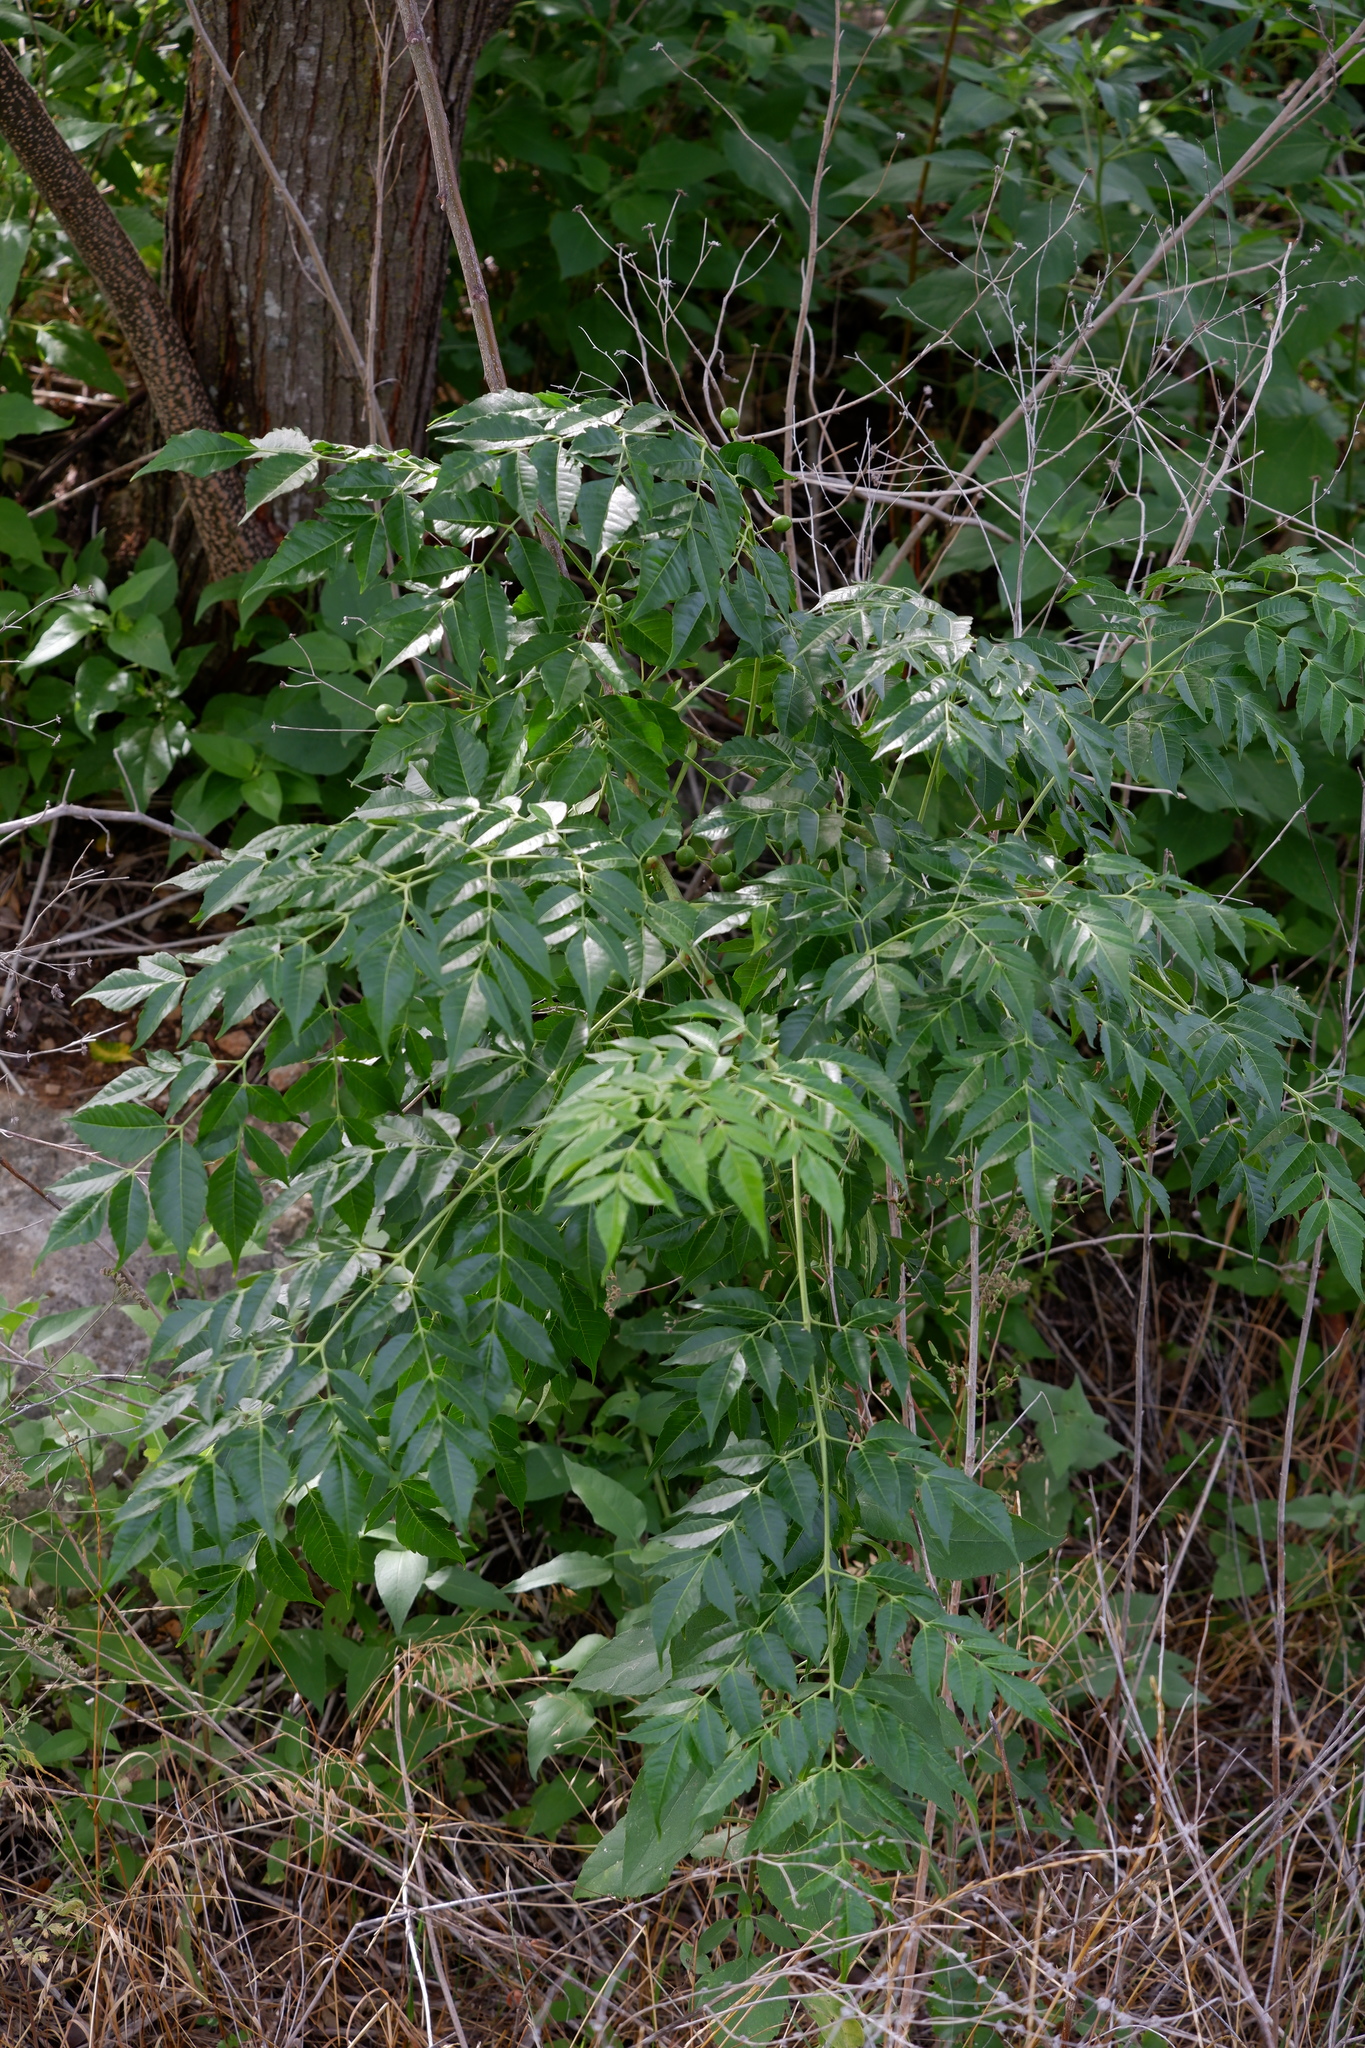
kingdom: Plantae
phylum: Tracheophyta
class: Magnoliopsida
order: Sapindales
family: Meliaceae
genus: Melia
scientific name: Melia azedarach
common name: Chinaberrytree
